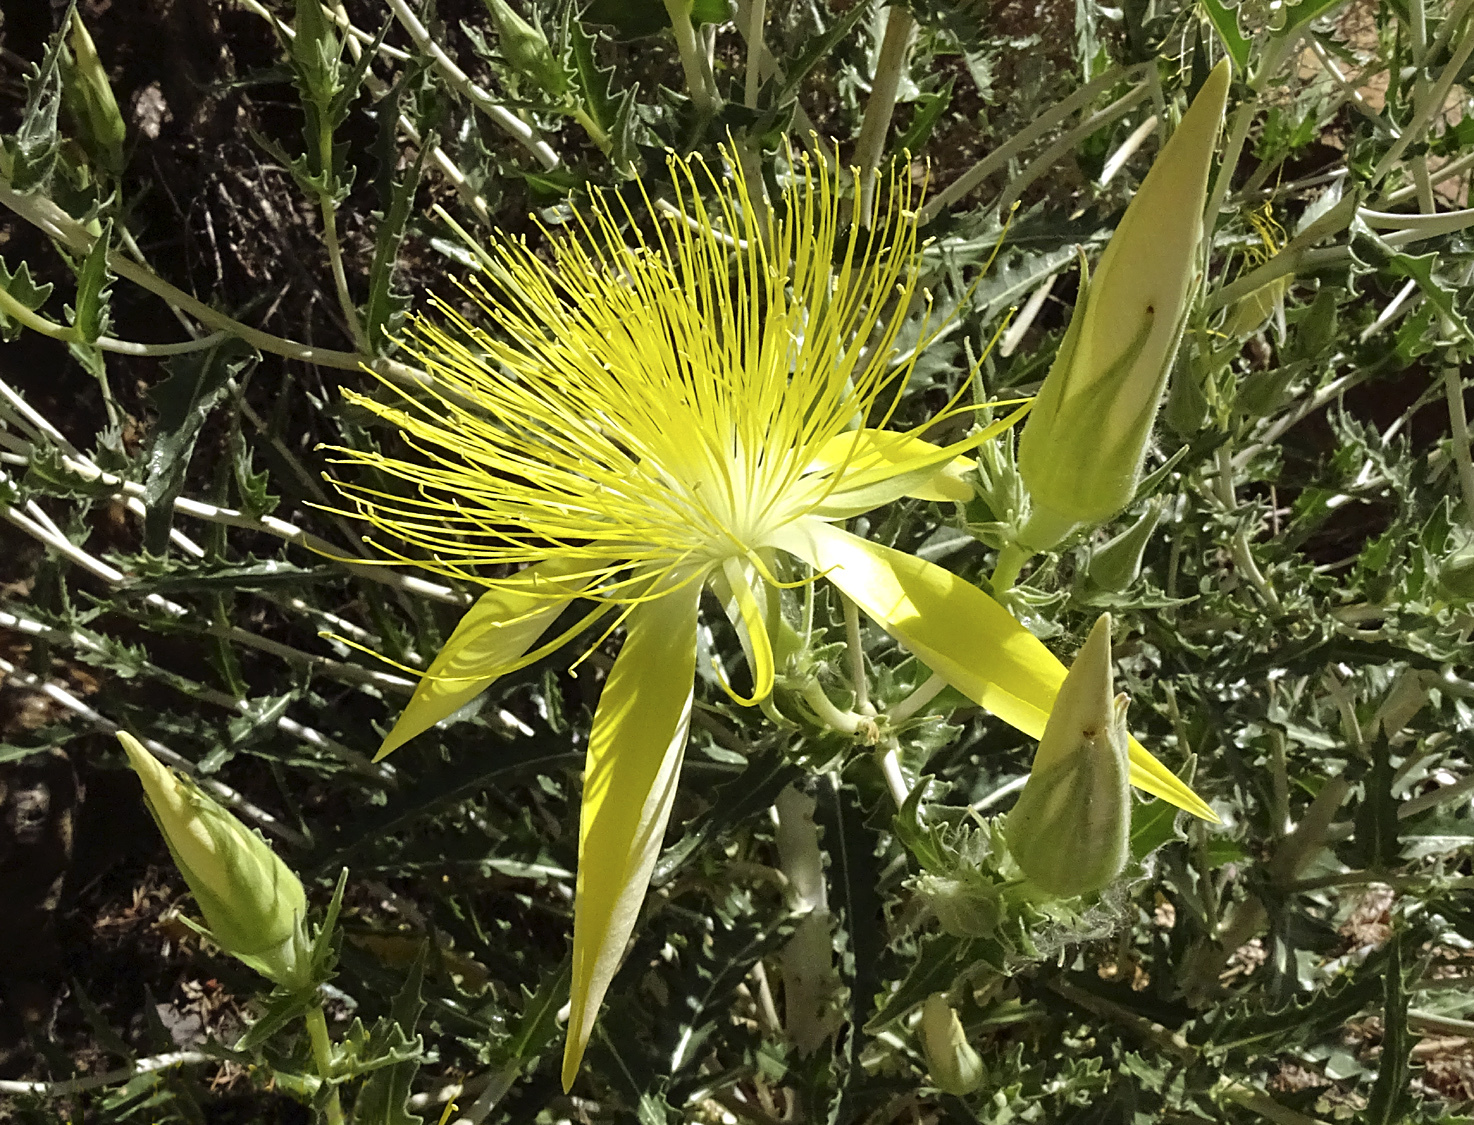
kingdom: Plantae
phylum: Tracheophyta
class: Magnoliopsida
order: Cornales
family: Loasaceae
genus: Mentzelia
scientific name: Mentzelia laevicaulis
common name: Smooth-stem blazingstar
